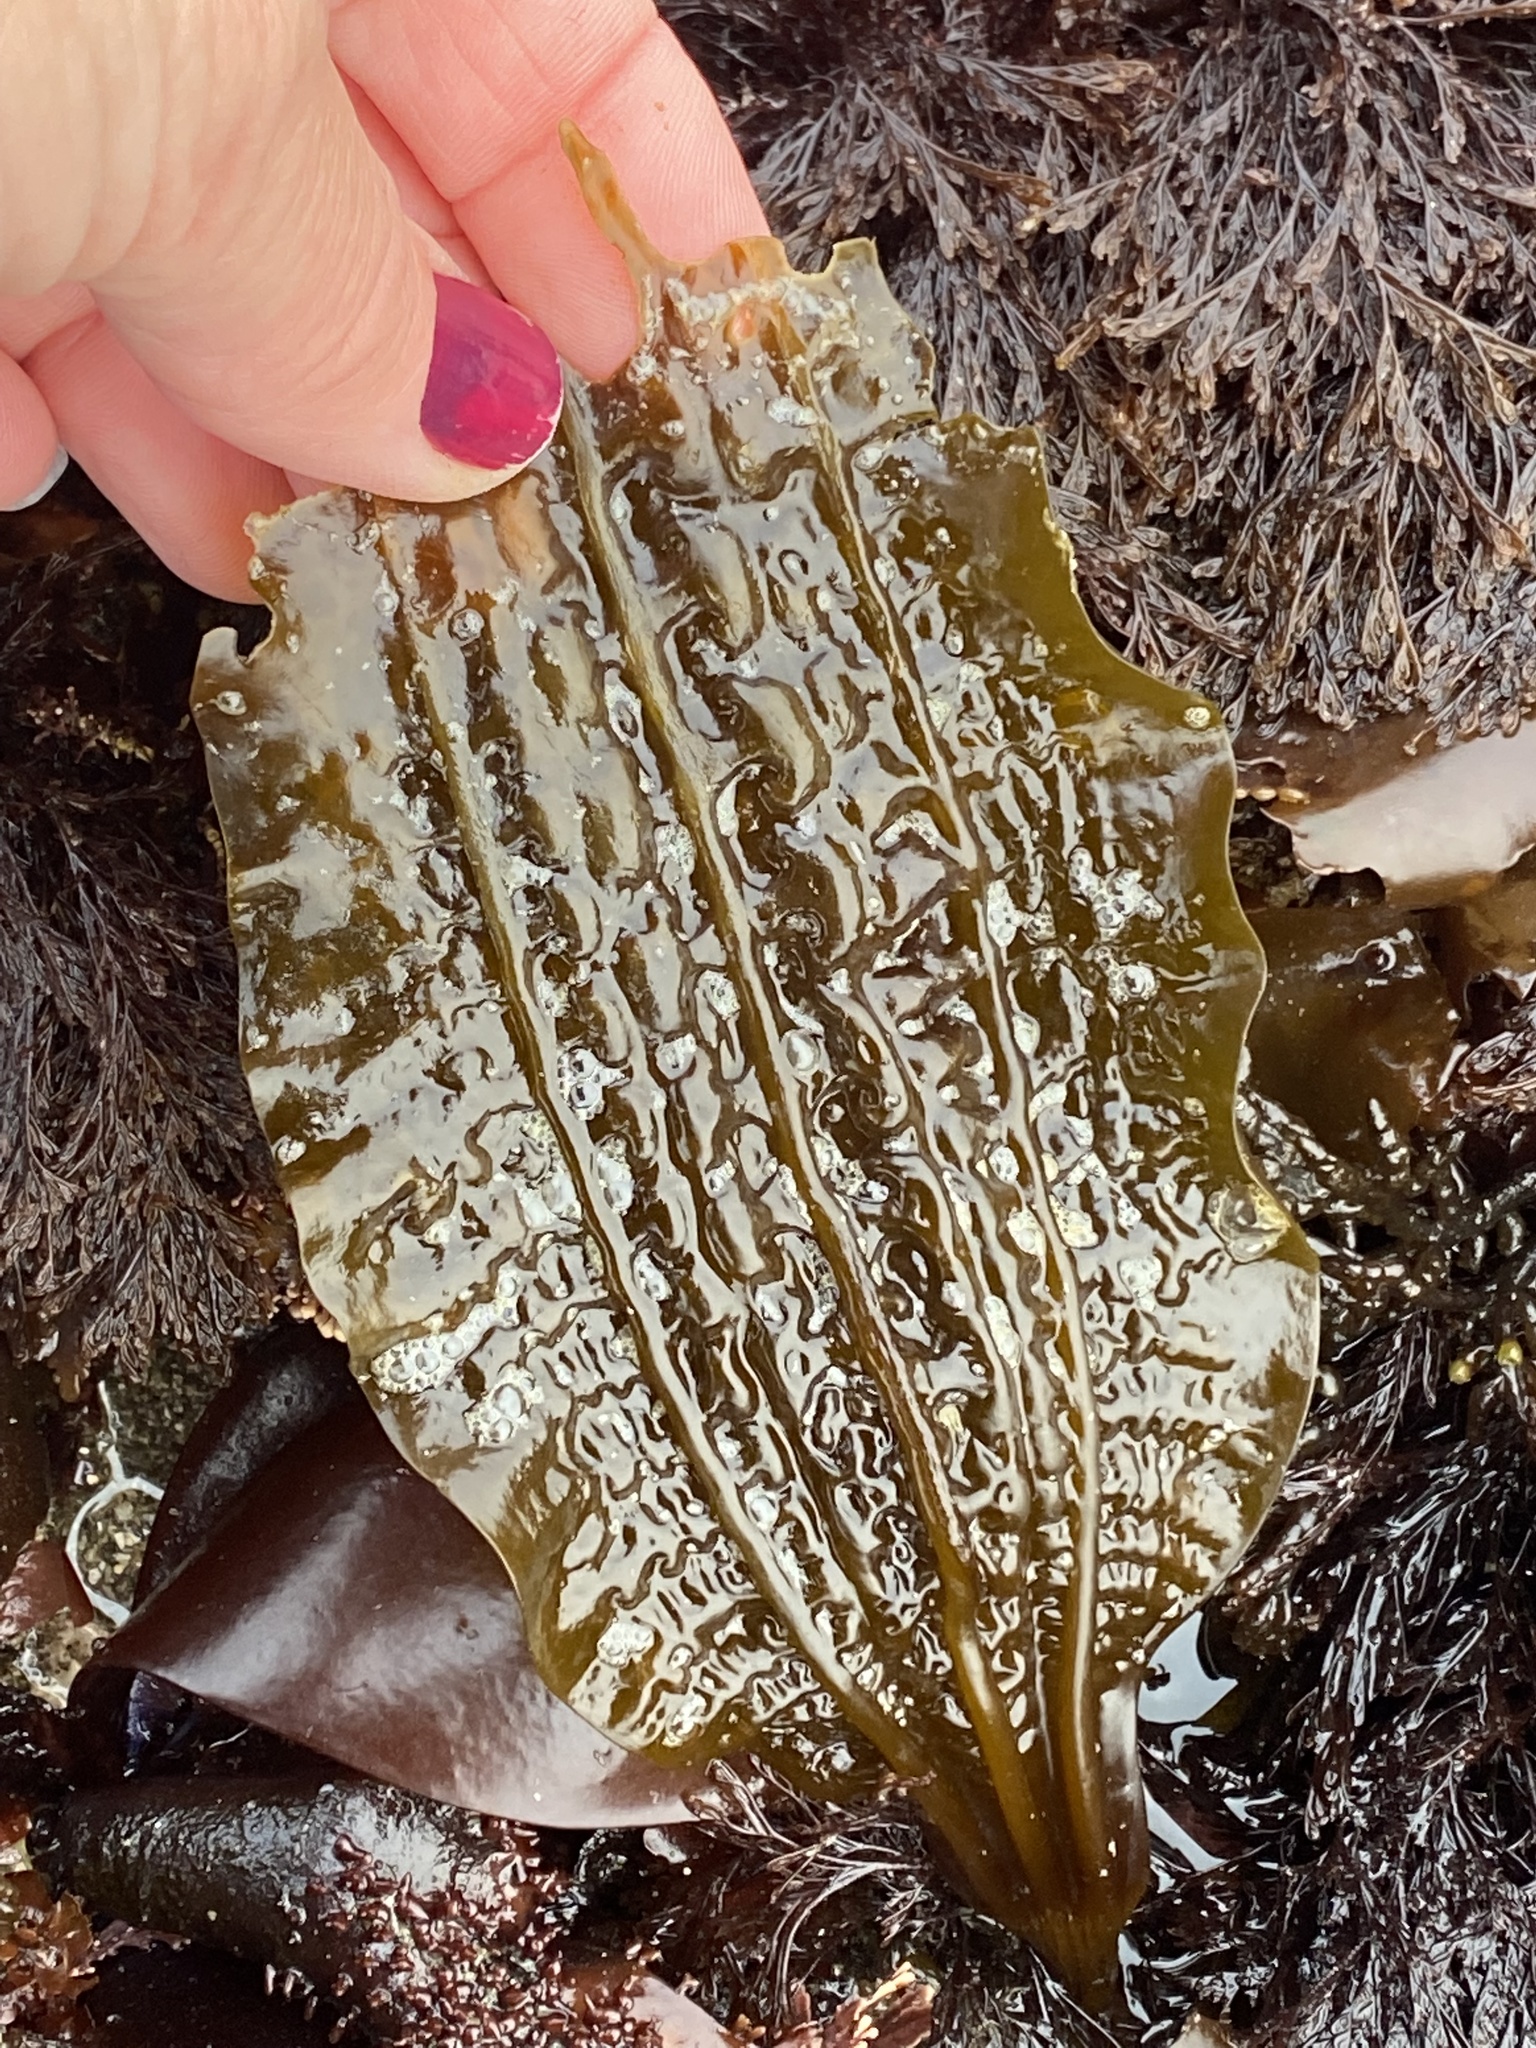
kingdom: Chromista
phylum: Ochrophyta
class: Phaeophyceae
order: Laminariales
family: Costariaceae
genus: Costaria
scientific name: Costaria costata
